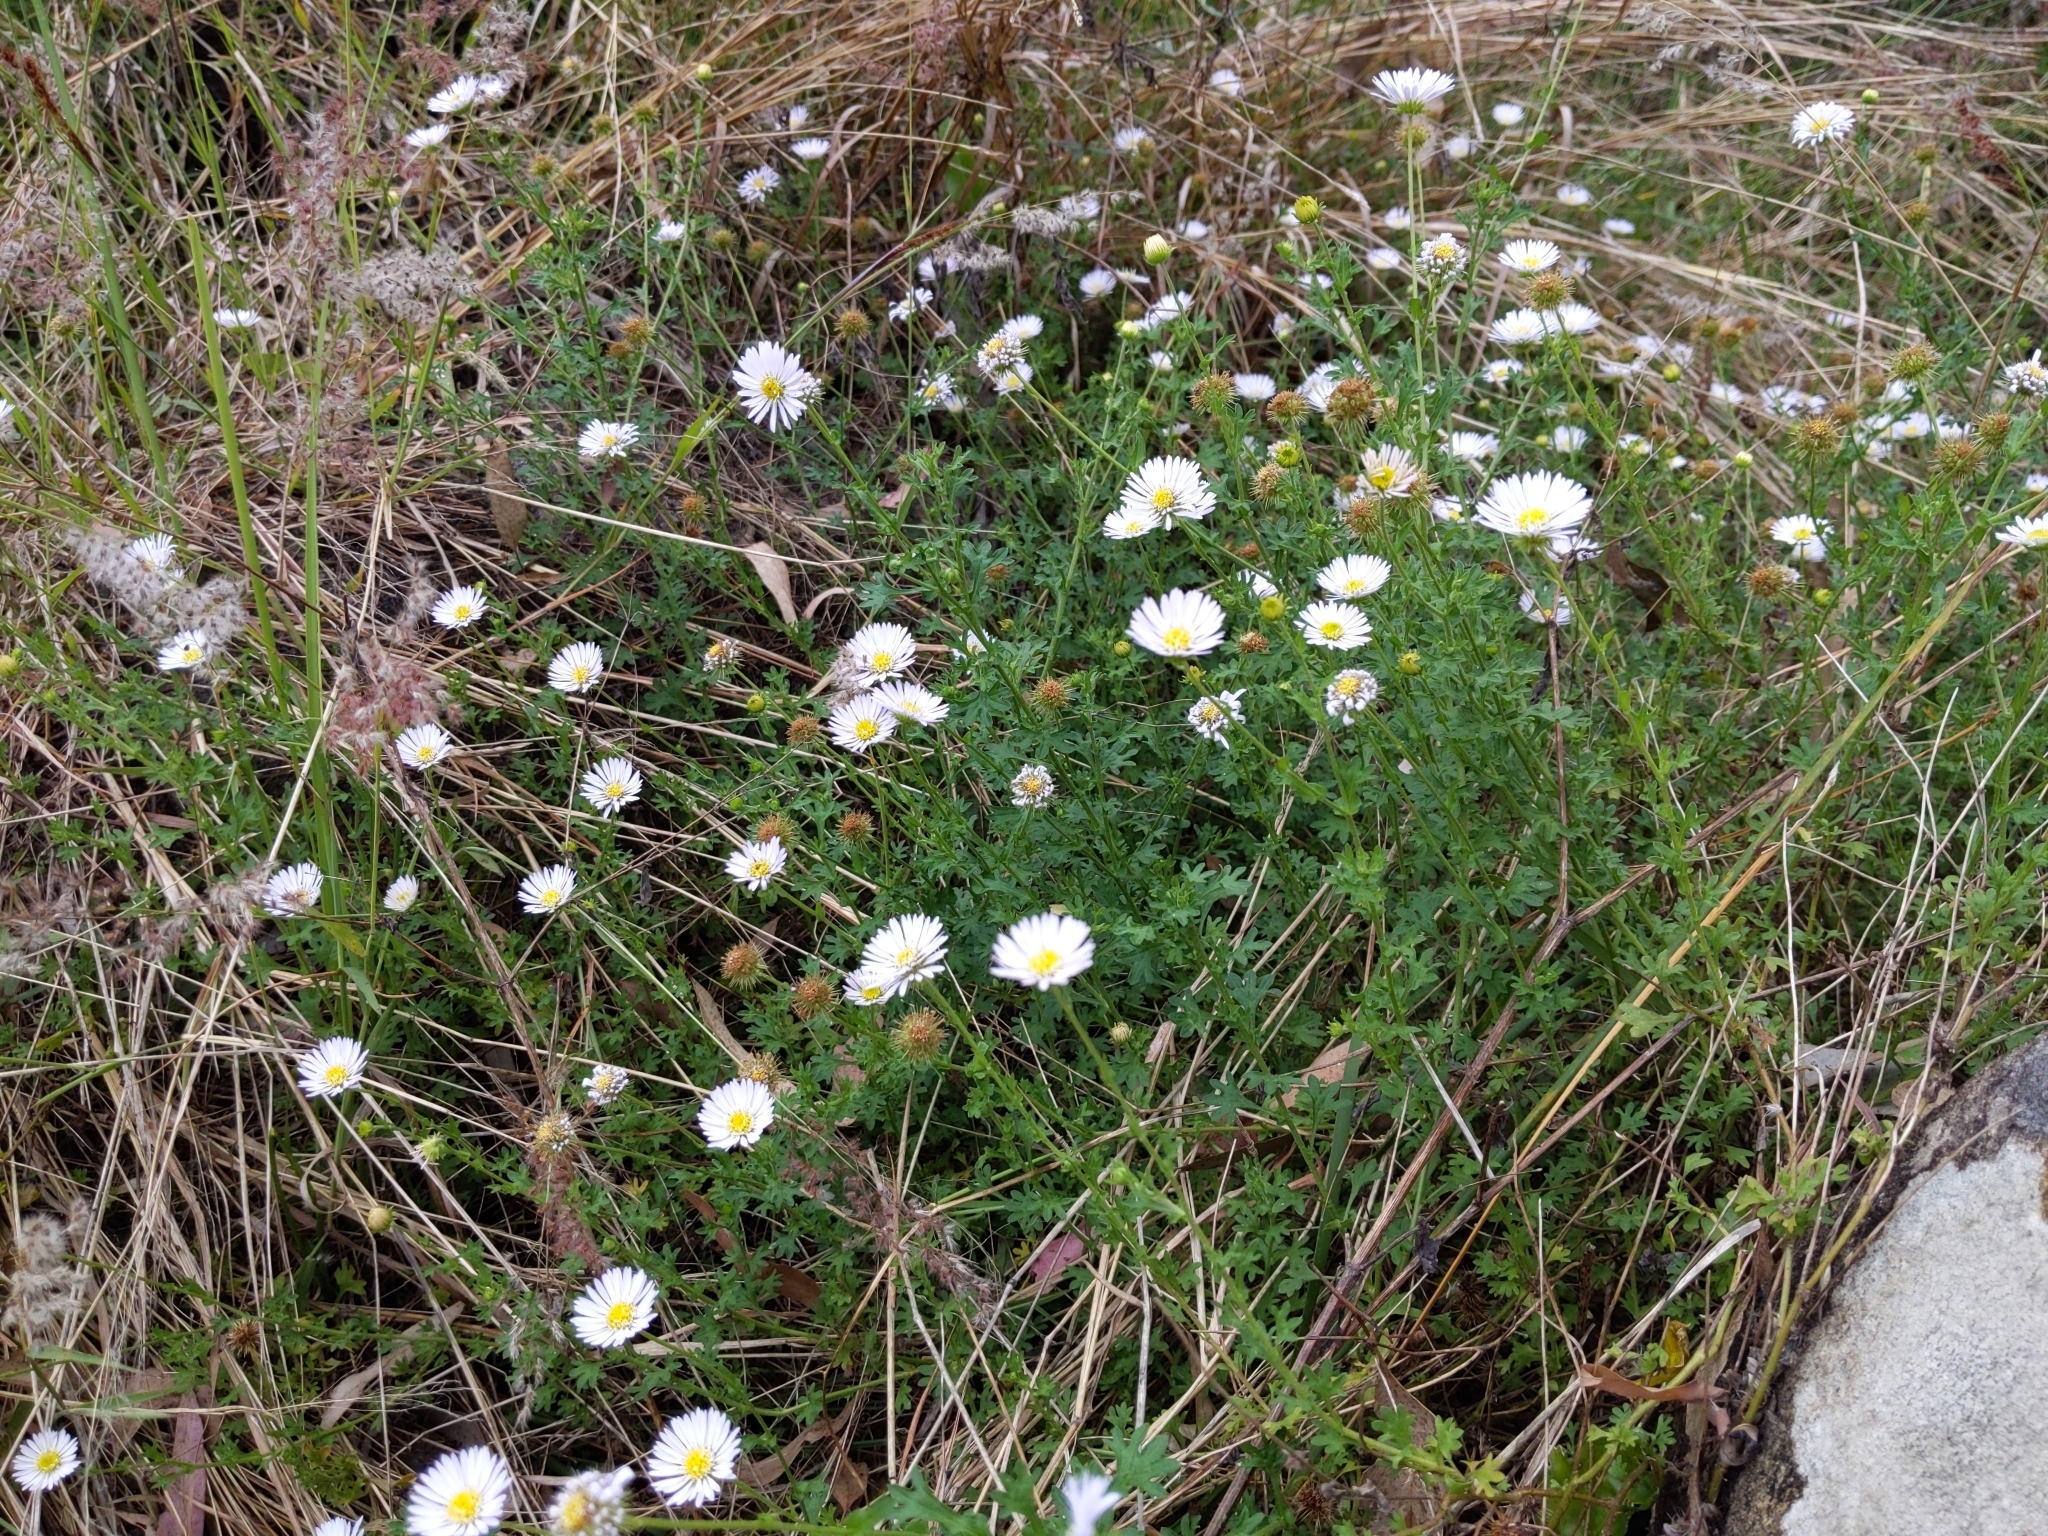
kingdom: Plantae
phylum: Tracheophyta
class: Magnoliopsida
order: Asterales
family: Asteraceae
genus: Calotis
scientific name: Calotis cuneifolia
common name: Bur-daisy
